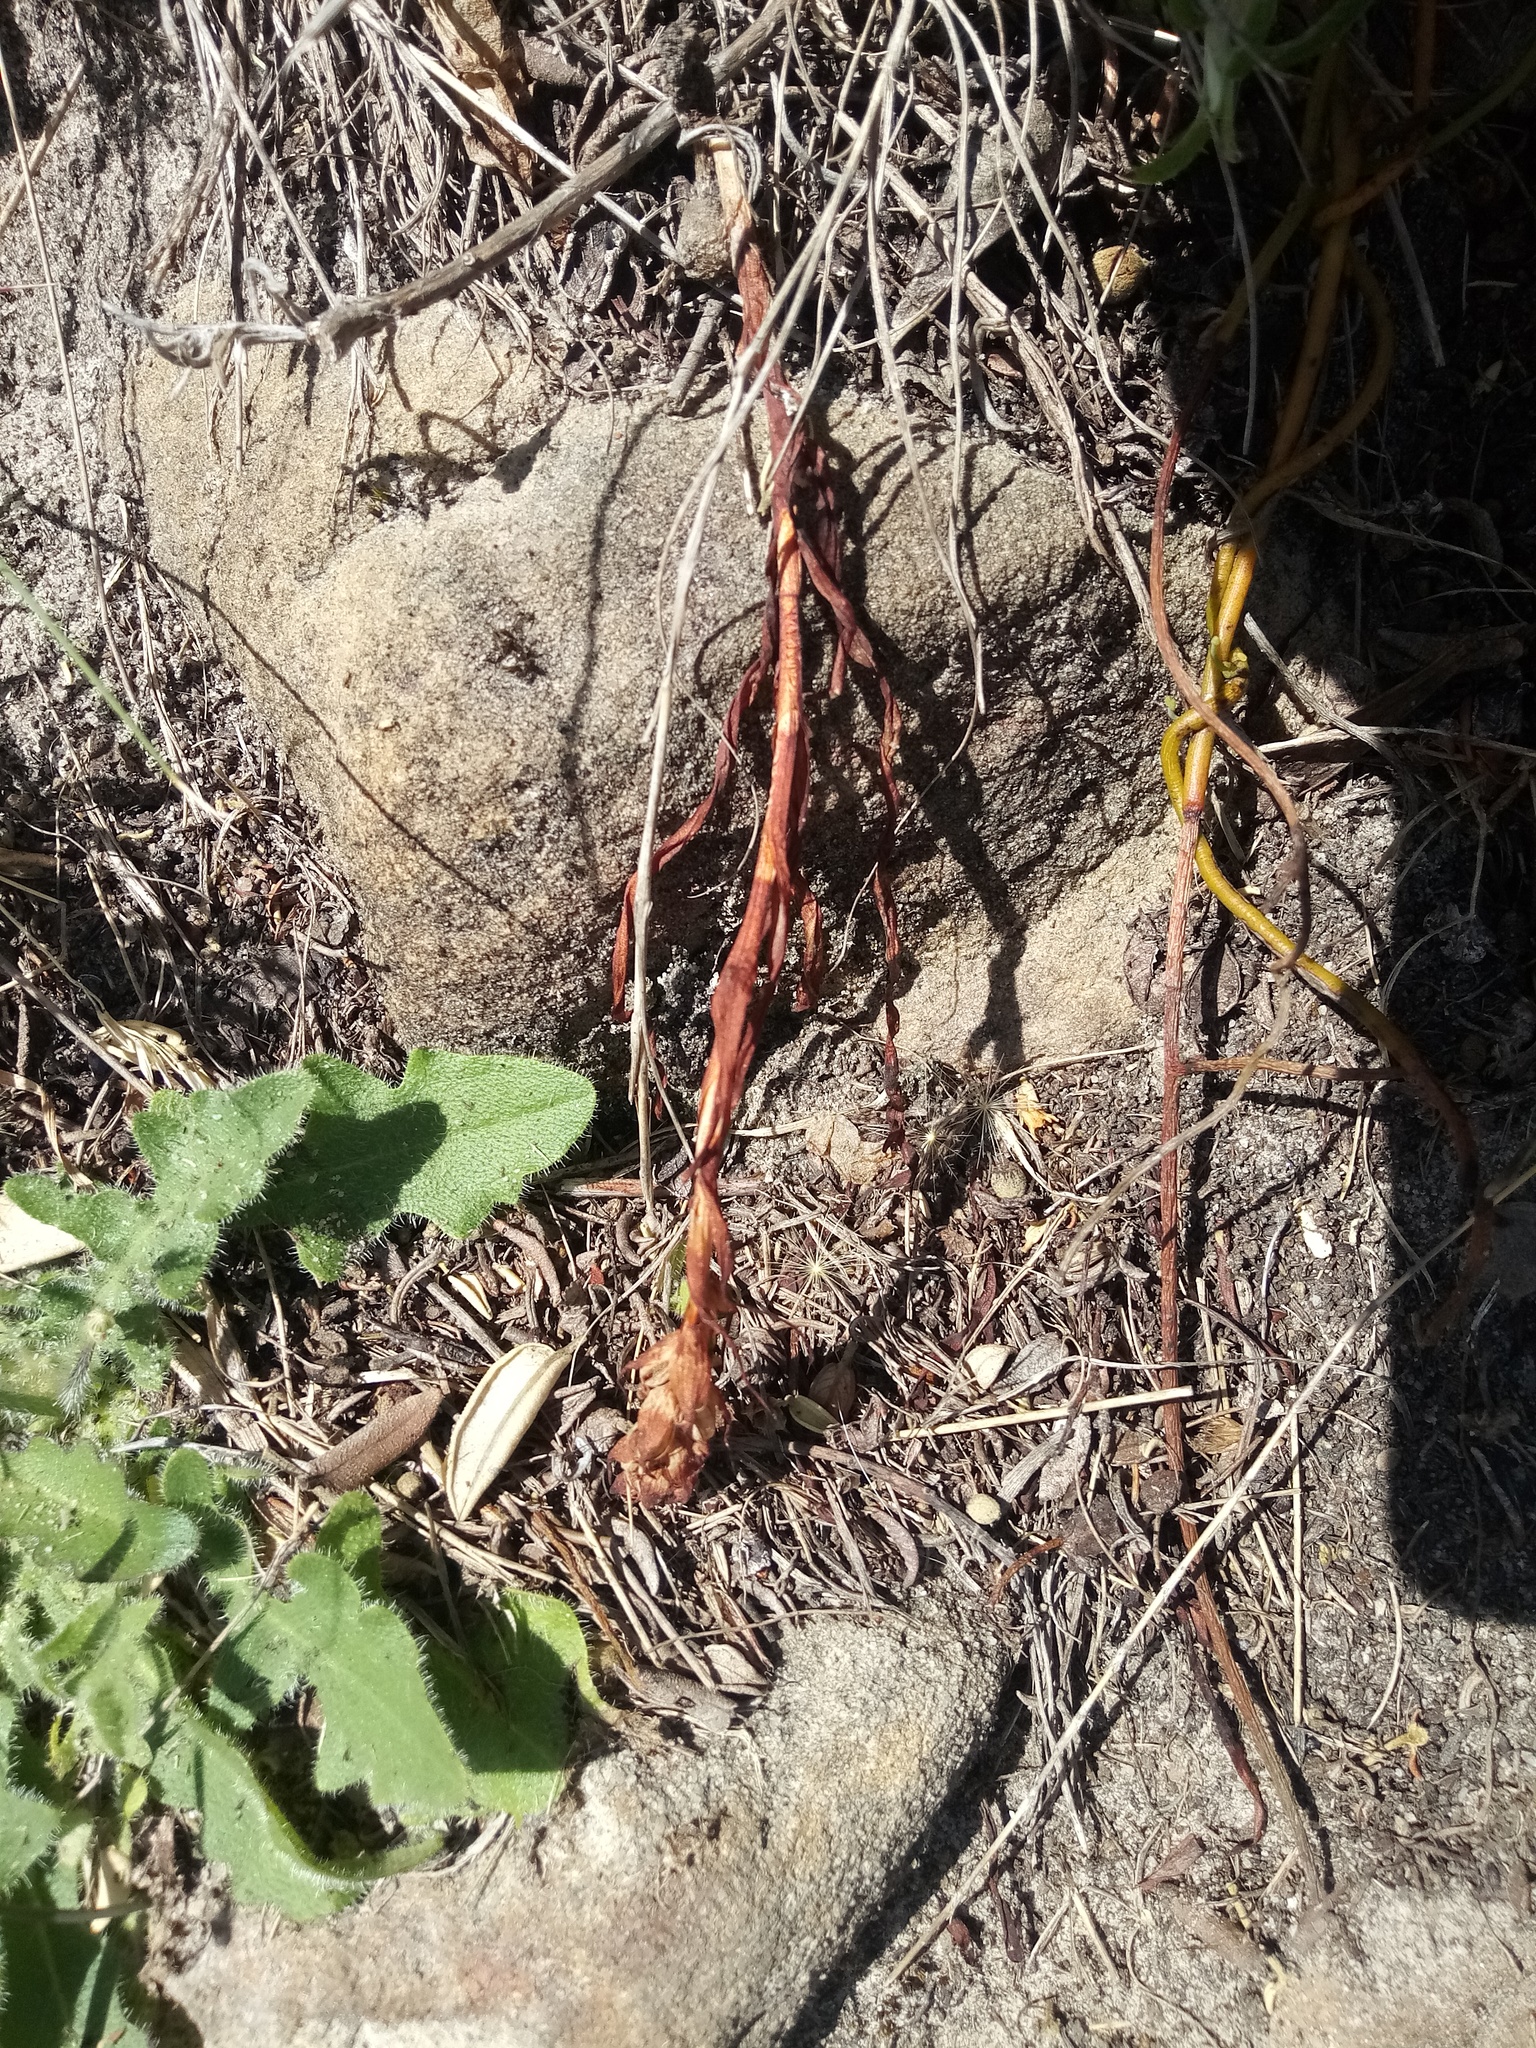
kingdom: Plantae
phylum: Tracheophyta
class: Liliopsida
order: Asparagales
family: Orchidaceae
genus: Disa
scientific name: Disa bracteata
